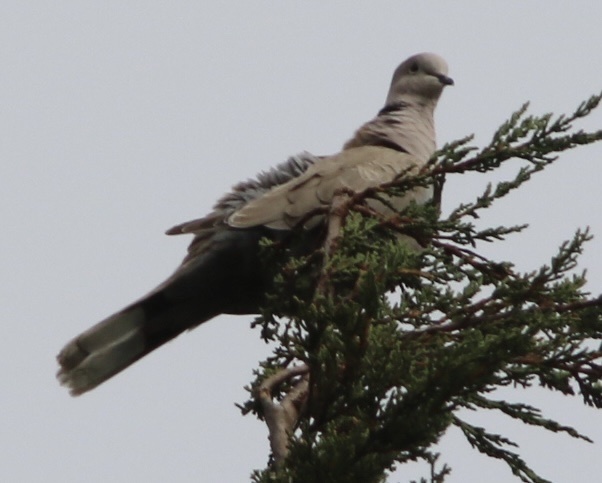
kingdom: Animalia
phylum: Chordata
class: Aves
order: Columbiformes
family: Columbidae
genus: Streptopelia
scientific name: Streptopelia decaocto
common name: Eurasian collared dove
